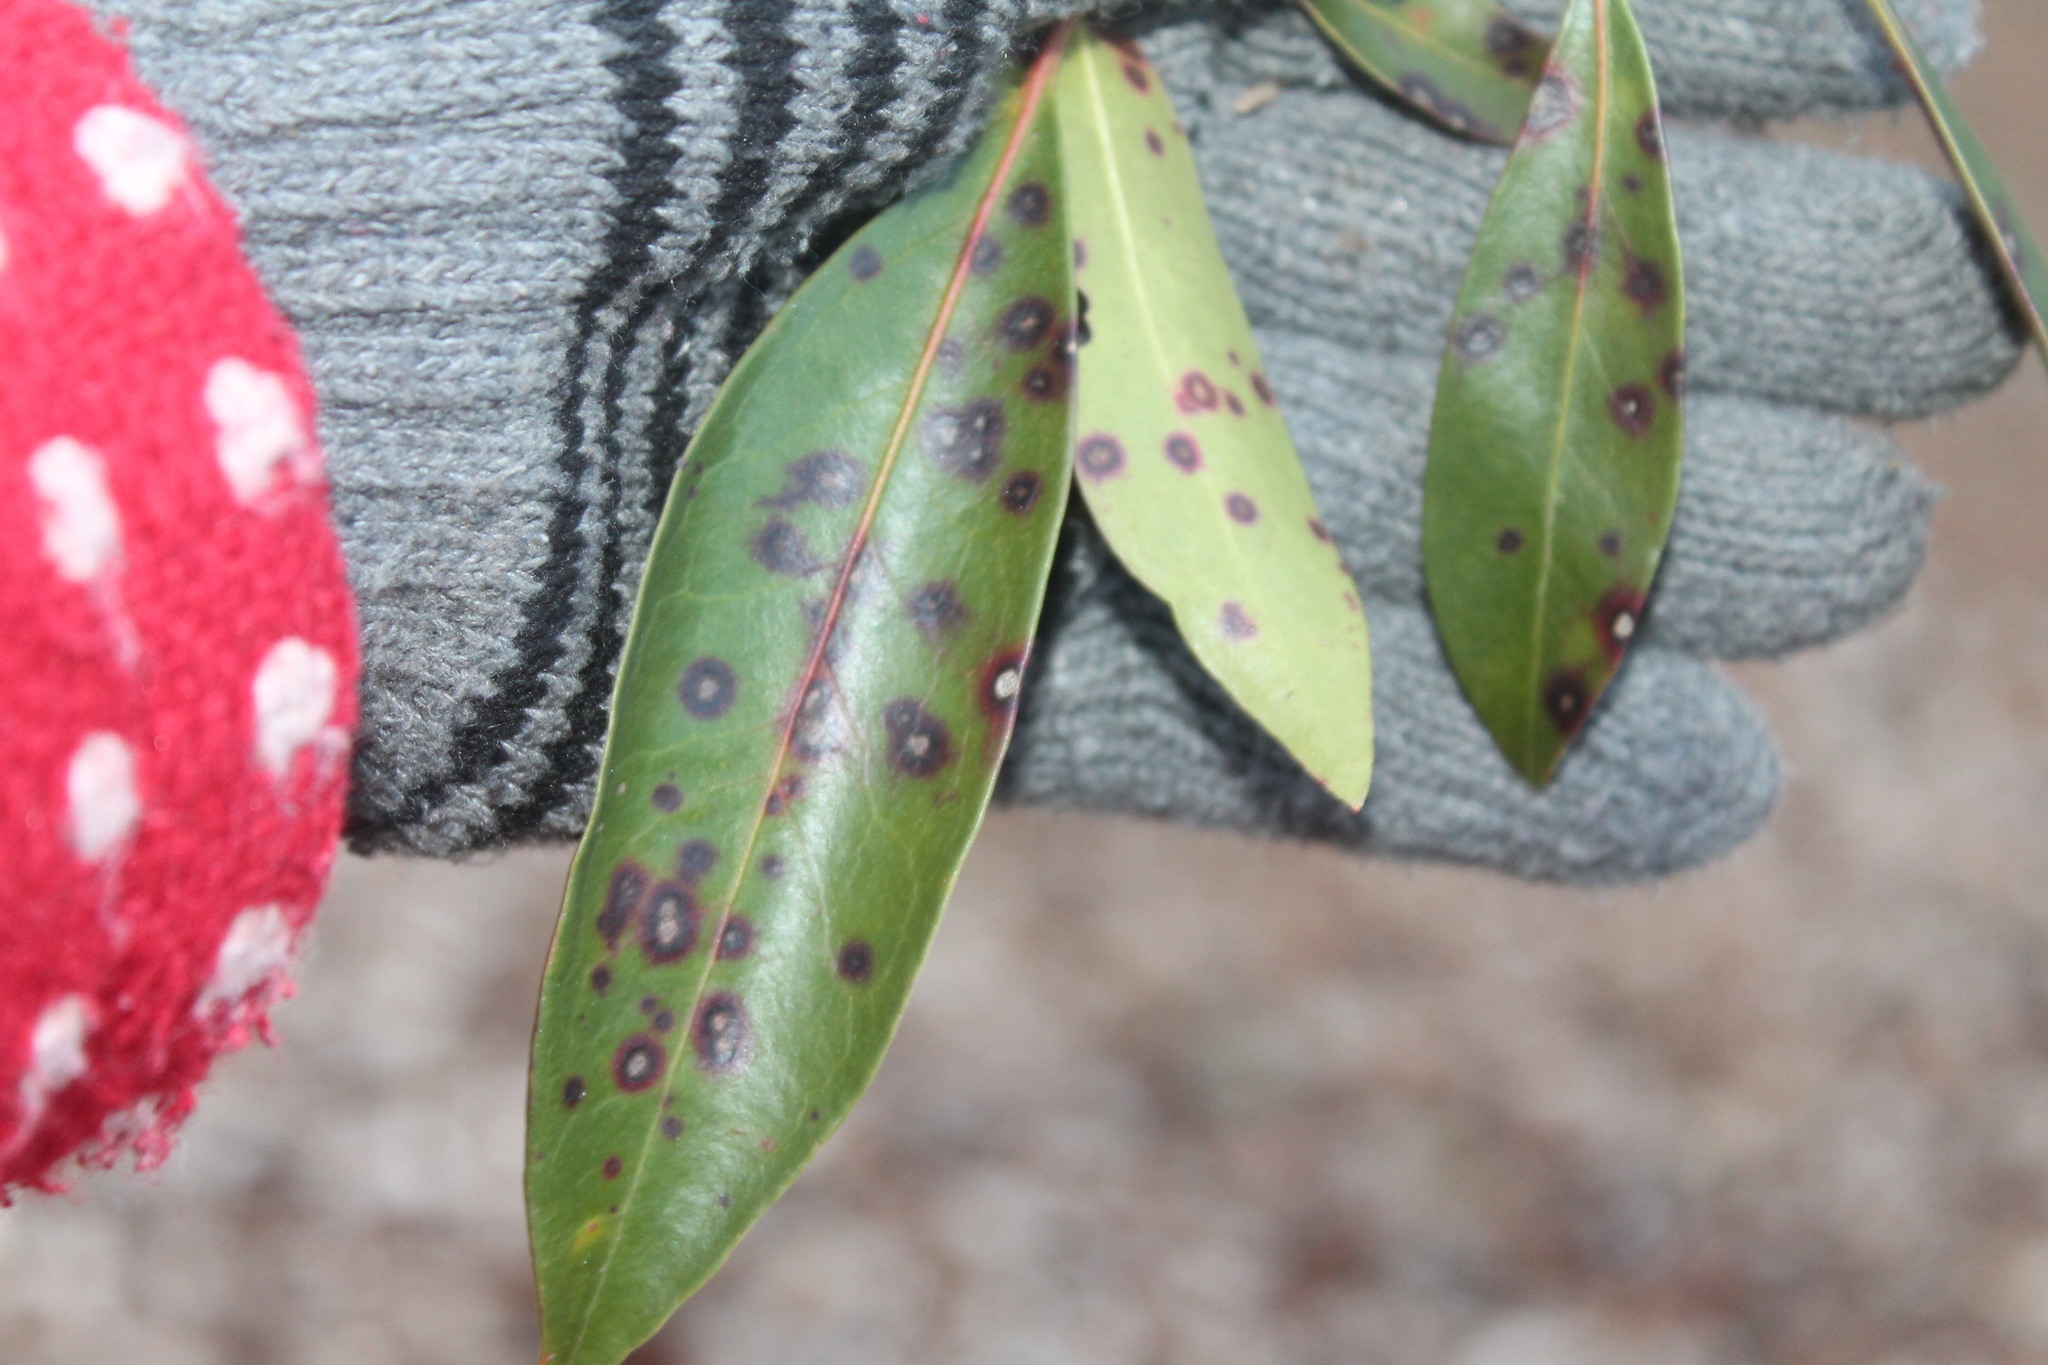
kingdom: Fungi
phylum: Ascomycota
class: Dothideomycetes
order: Mycosphaerellales
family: Mycosphaerellaceae
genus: Mycosphaerella
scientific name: Mycosphaerella colorata
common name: Mountain laurel leaf spot
